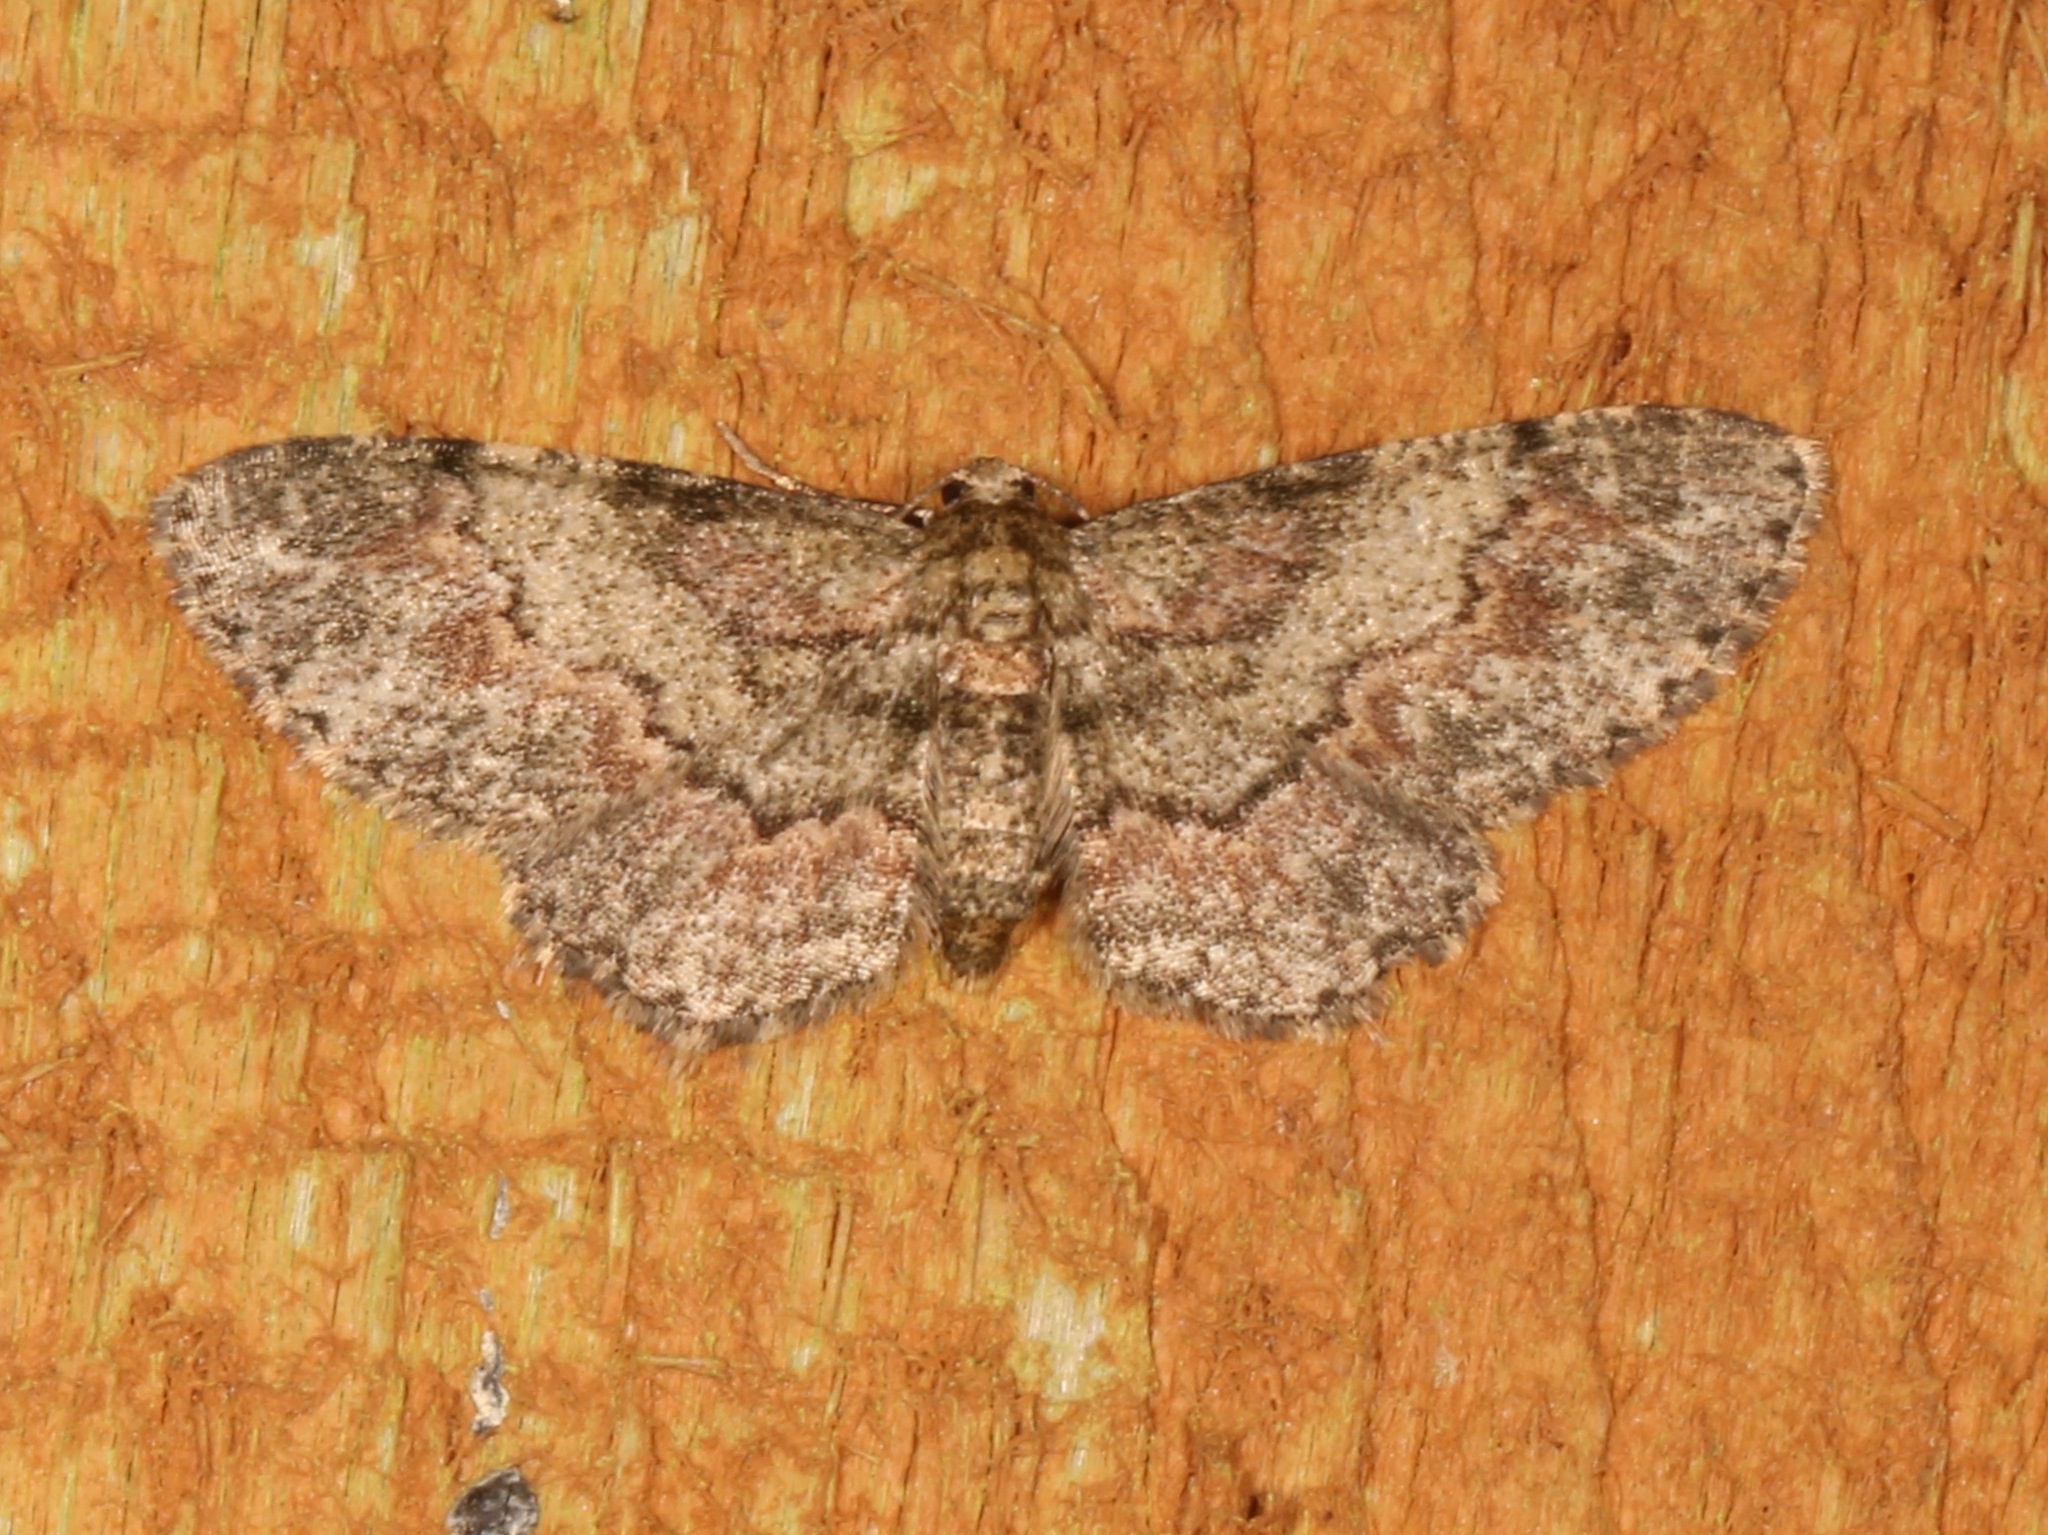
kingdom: Animalia
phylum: Arthropoda
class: Insecta
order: Lepidoptera
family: Geometridae
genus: Glenoides
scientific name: Glenoides texanaria
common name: Texas gray
